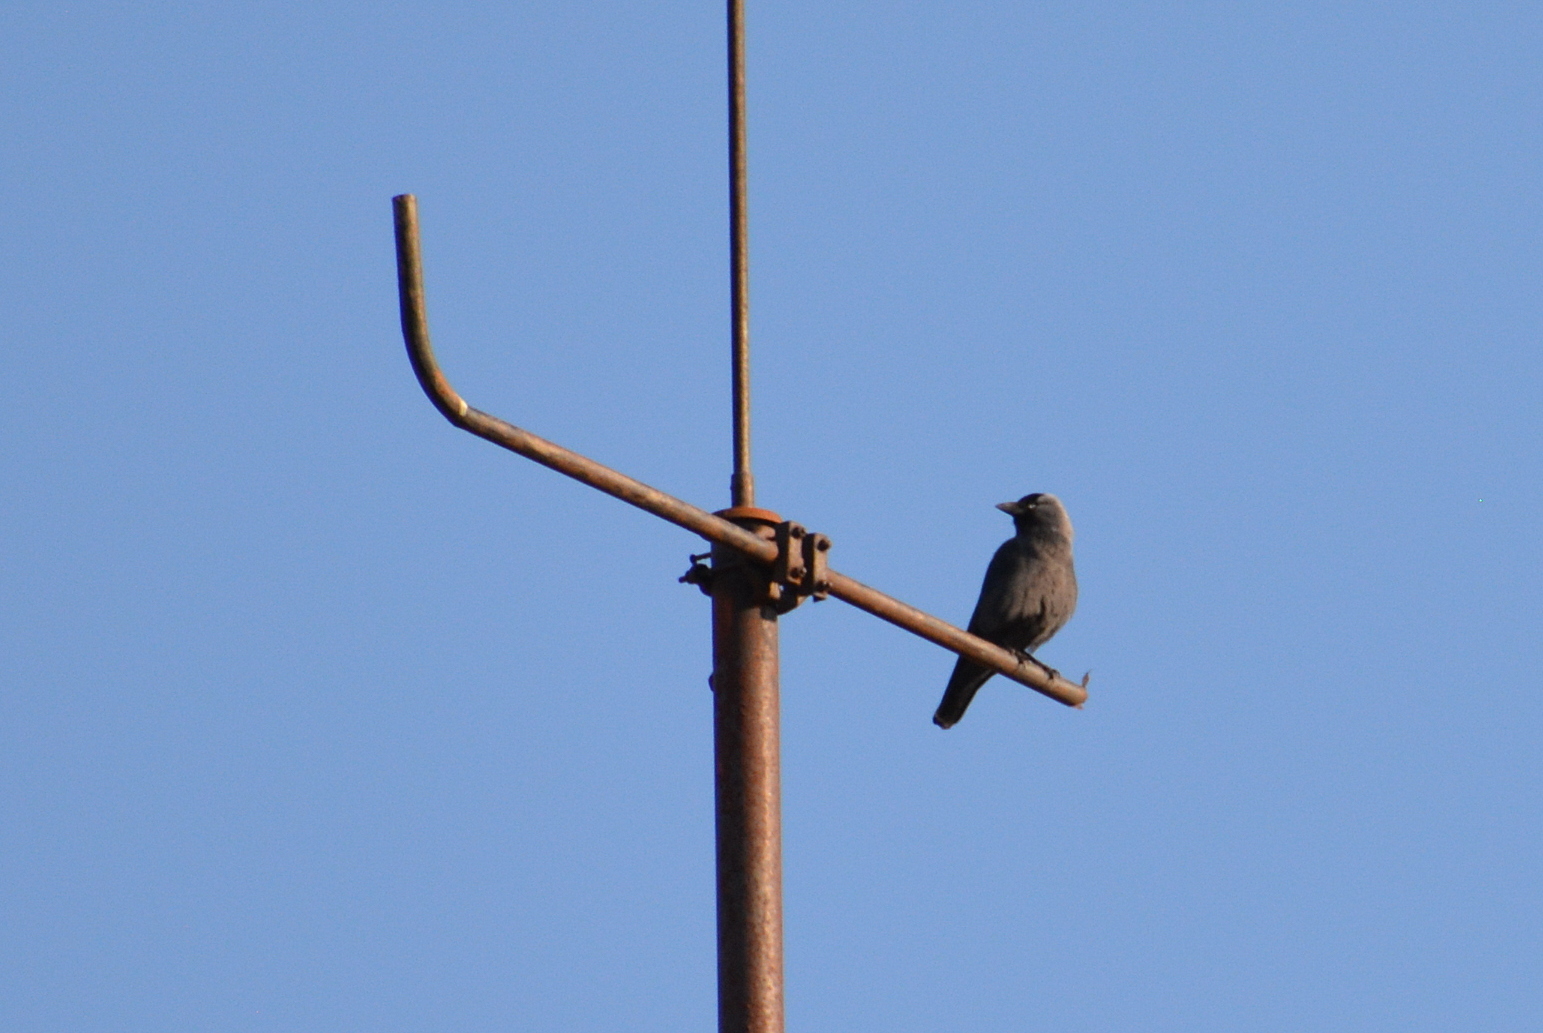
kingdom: Animalia
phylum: Chordata
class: Aves
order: Passeriformes
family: Corvidae
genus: Coloeus
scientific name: Coloeus monedula
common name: Western jackdaw
